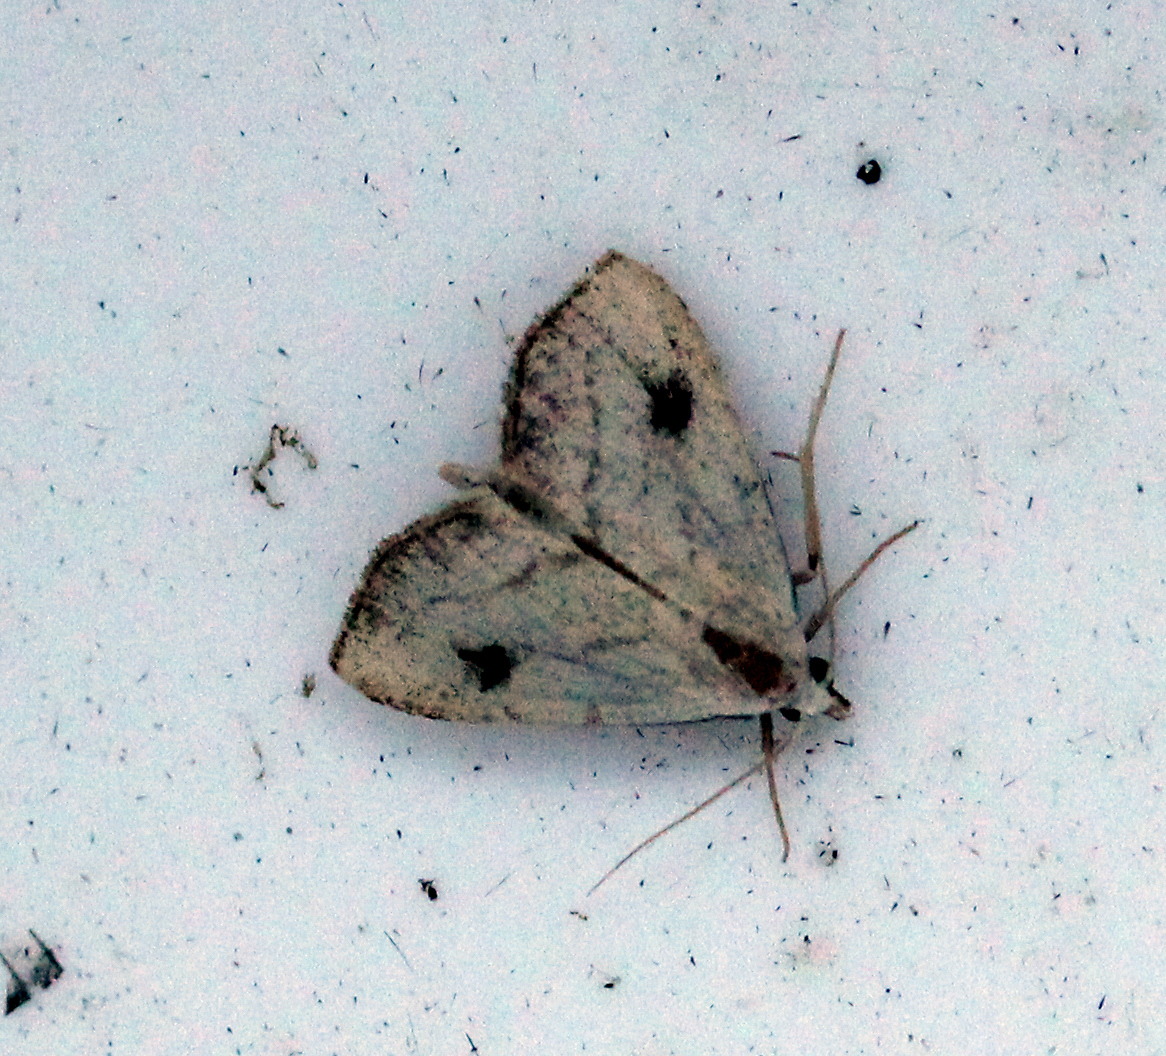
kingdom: Animalia
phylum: Arthropoda
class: Insecta
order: Lepidoptera
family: Erebidae
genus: Rivula
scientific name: Rivula propinqualis
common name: Spotted grass moth
